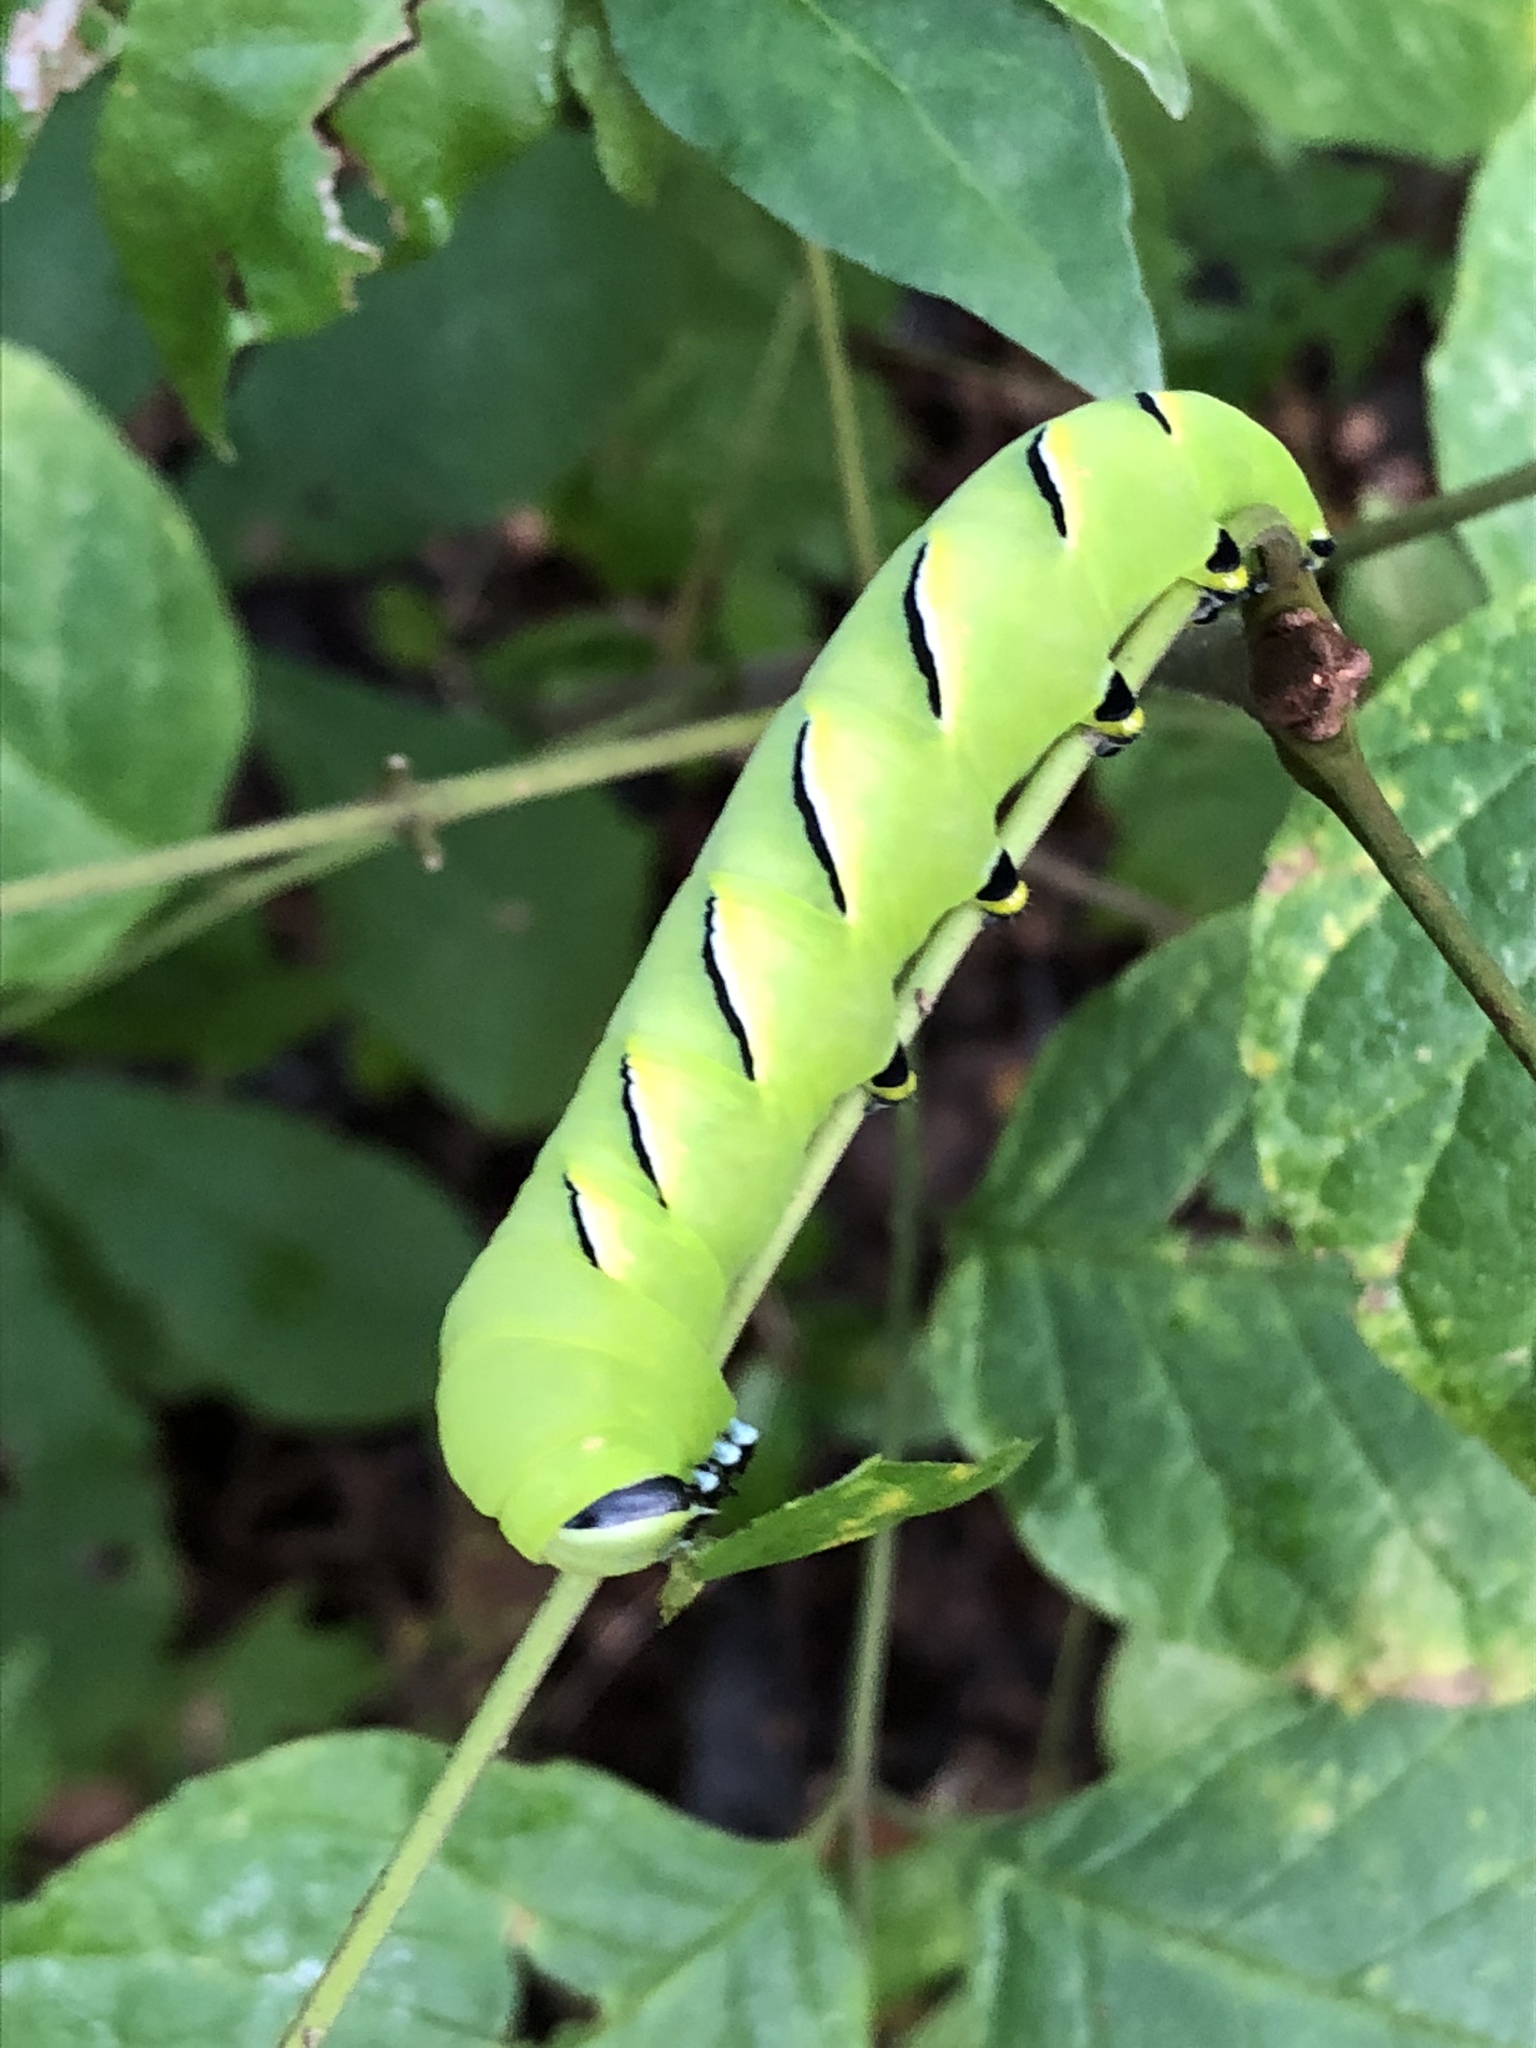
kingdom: Animalia
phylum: Arthropoda
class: Insecta
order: Lepidoptera
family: Sphingidae
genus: Sphinx
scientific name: Sphinx kalmiae
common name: Laurel sphinx
